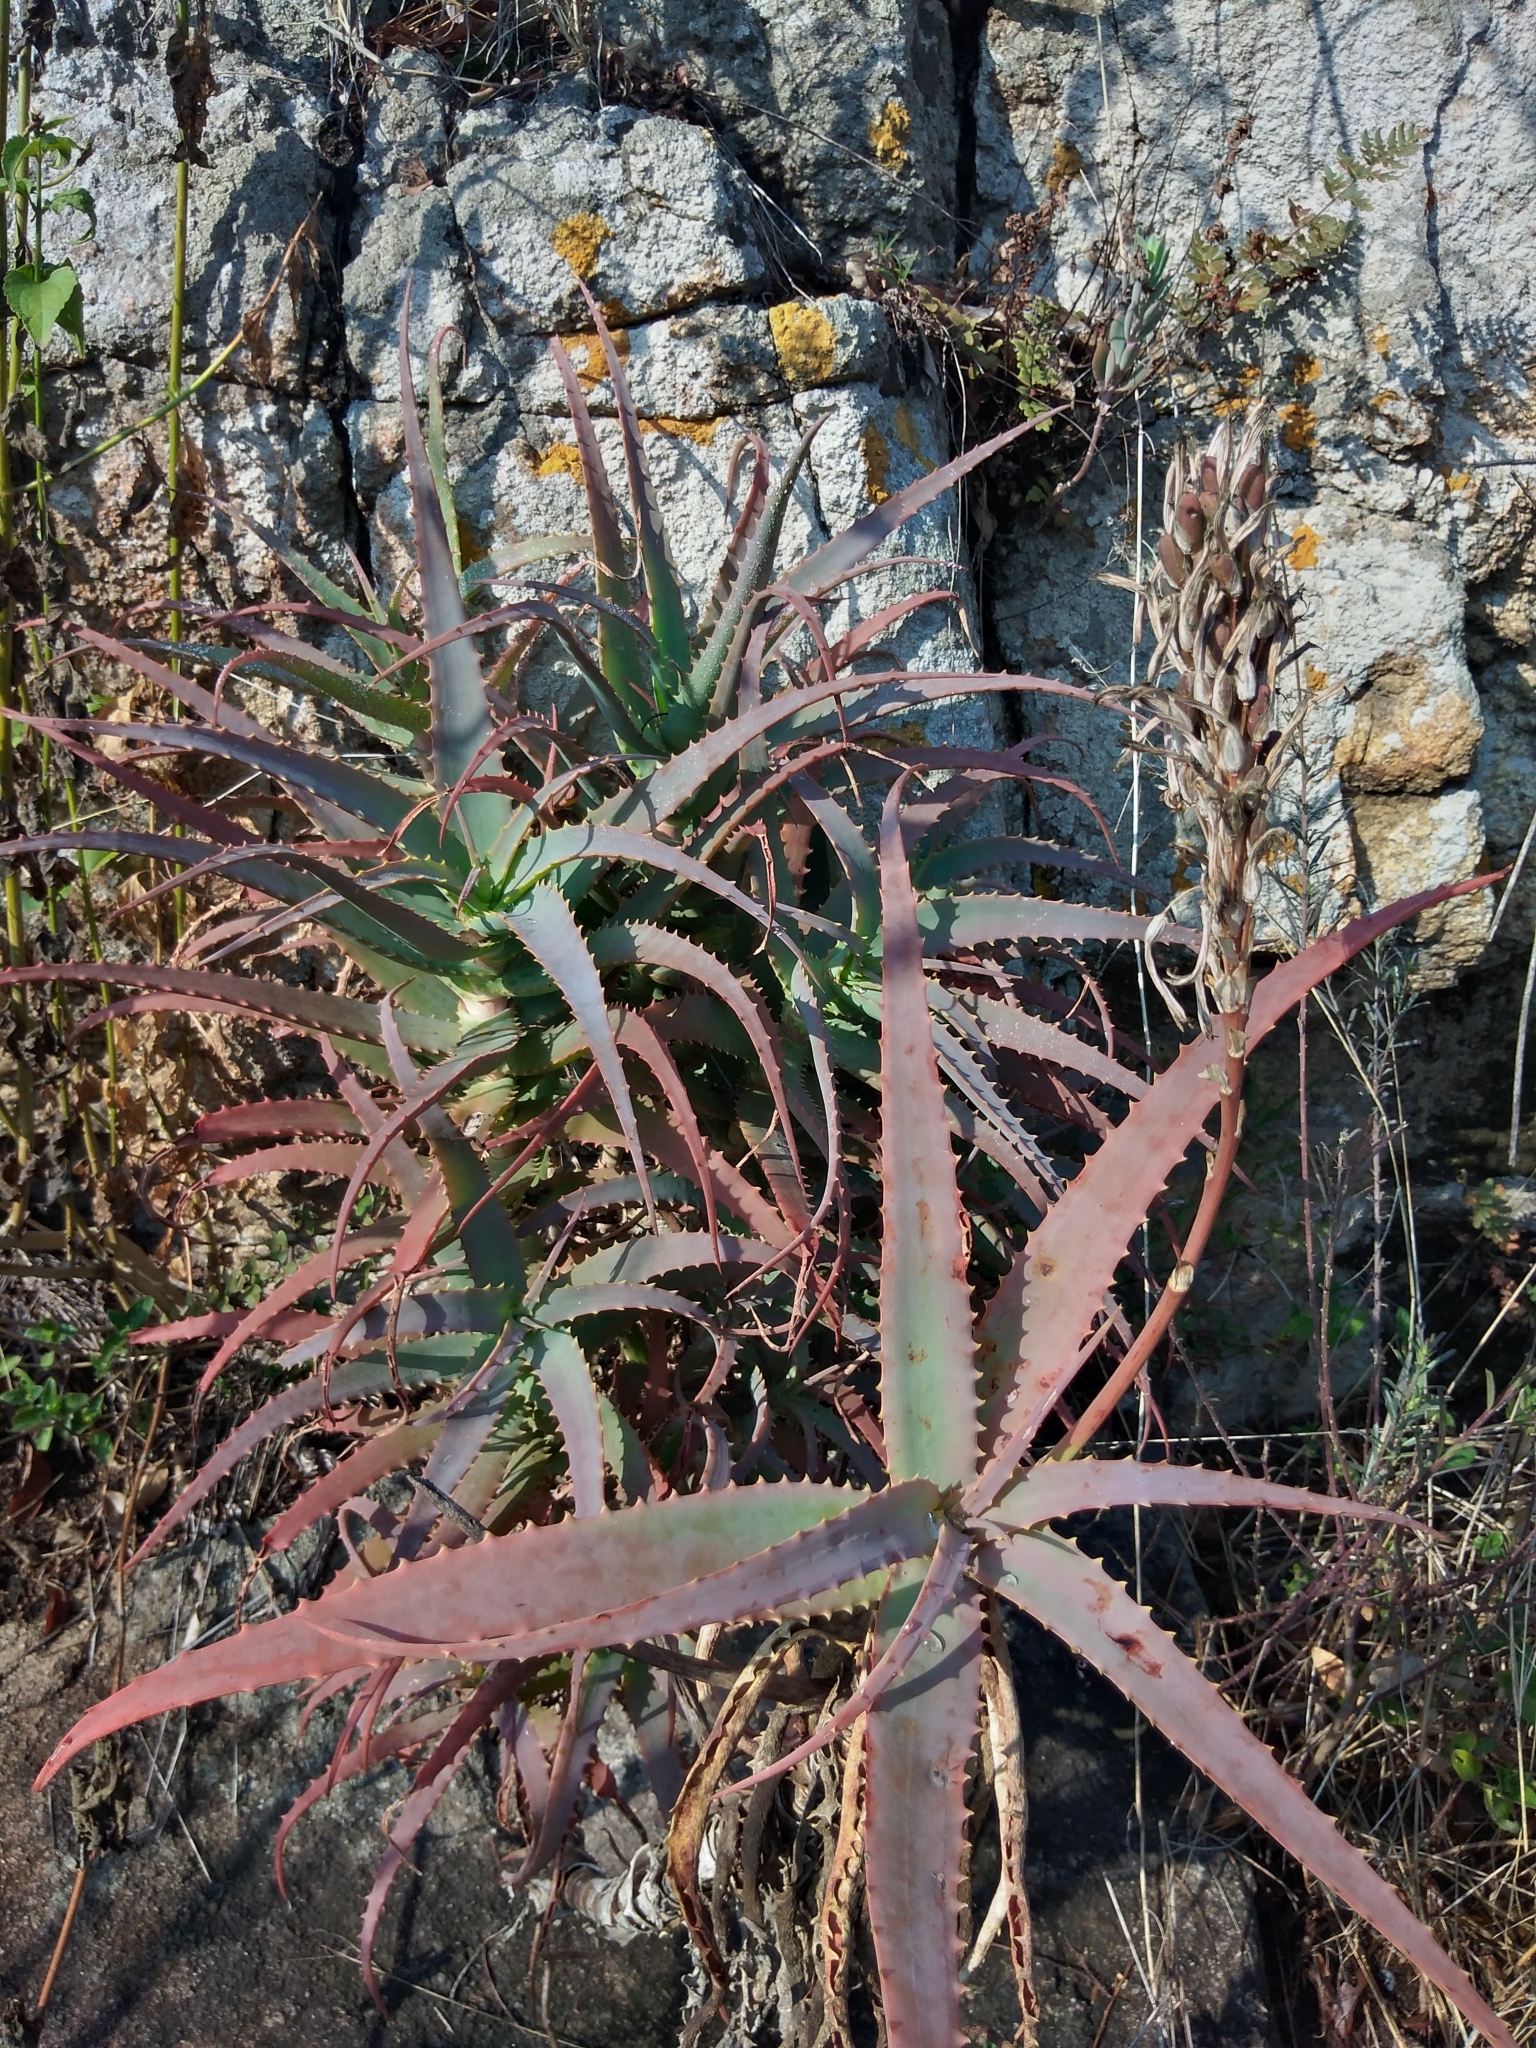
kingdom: Plantae
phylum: Tracheophyta
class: Liliopsida
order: Asparagales
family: Asphodelaceae
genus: Aloe
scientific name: Aloe arborescens
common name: Candelabra aloe
